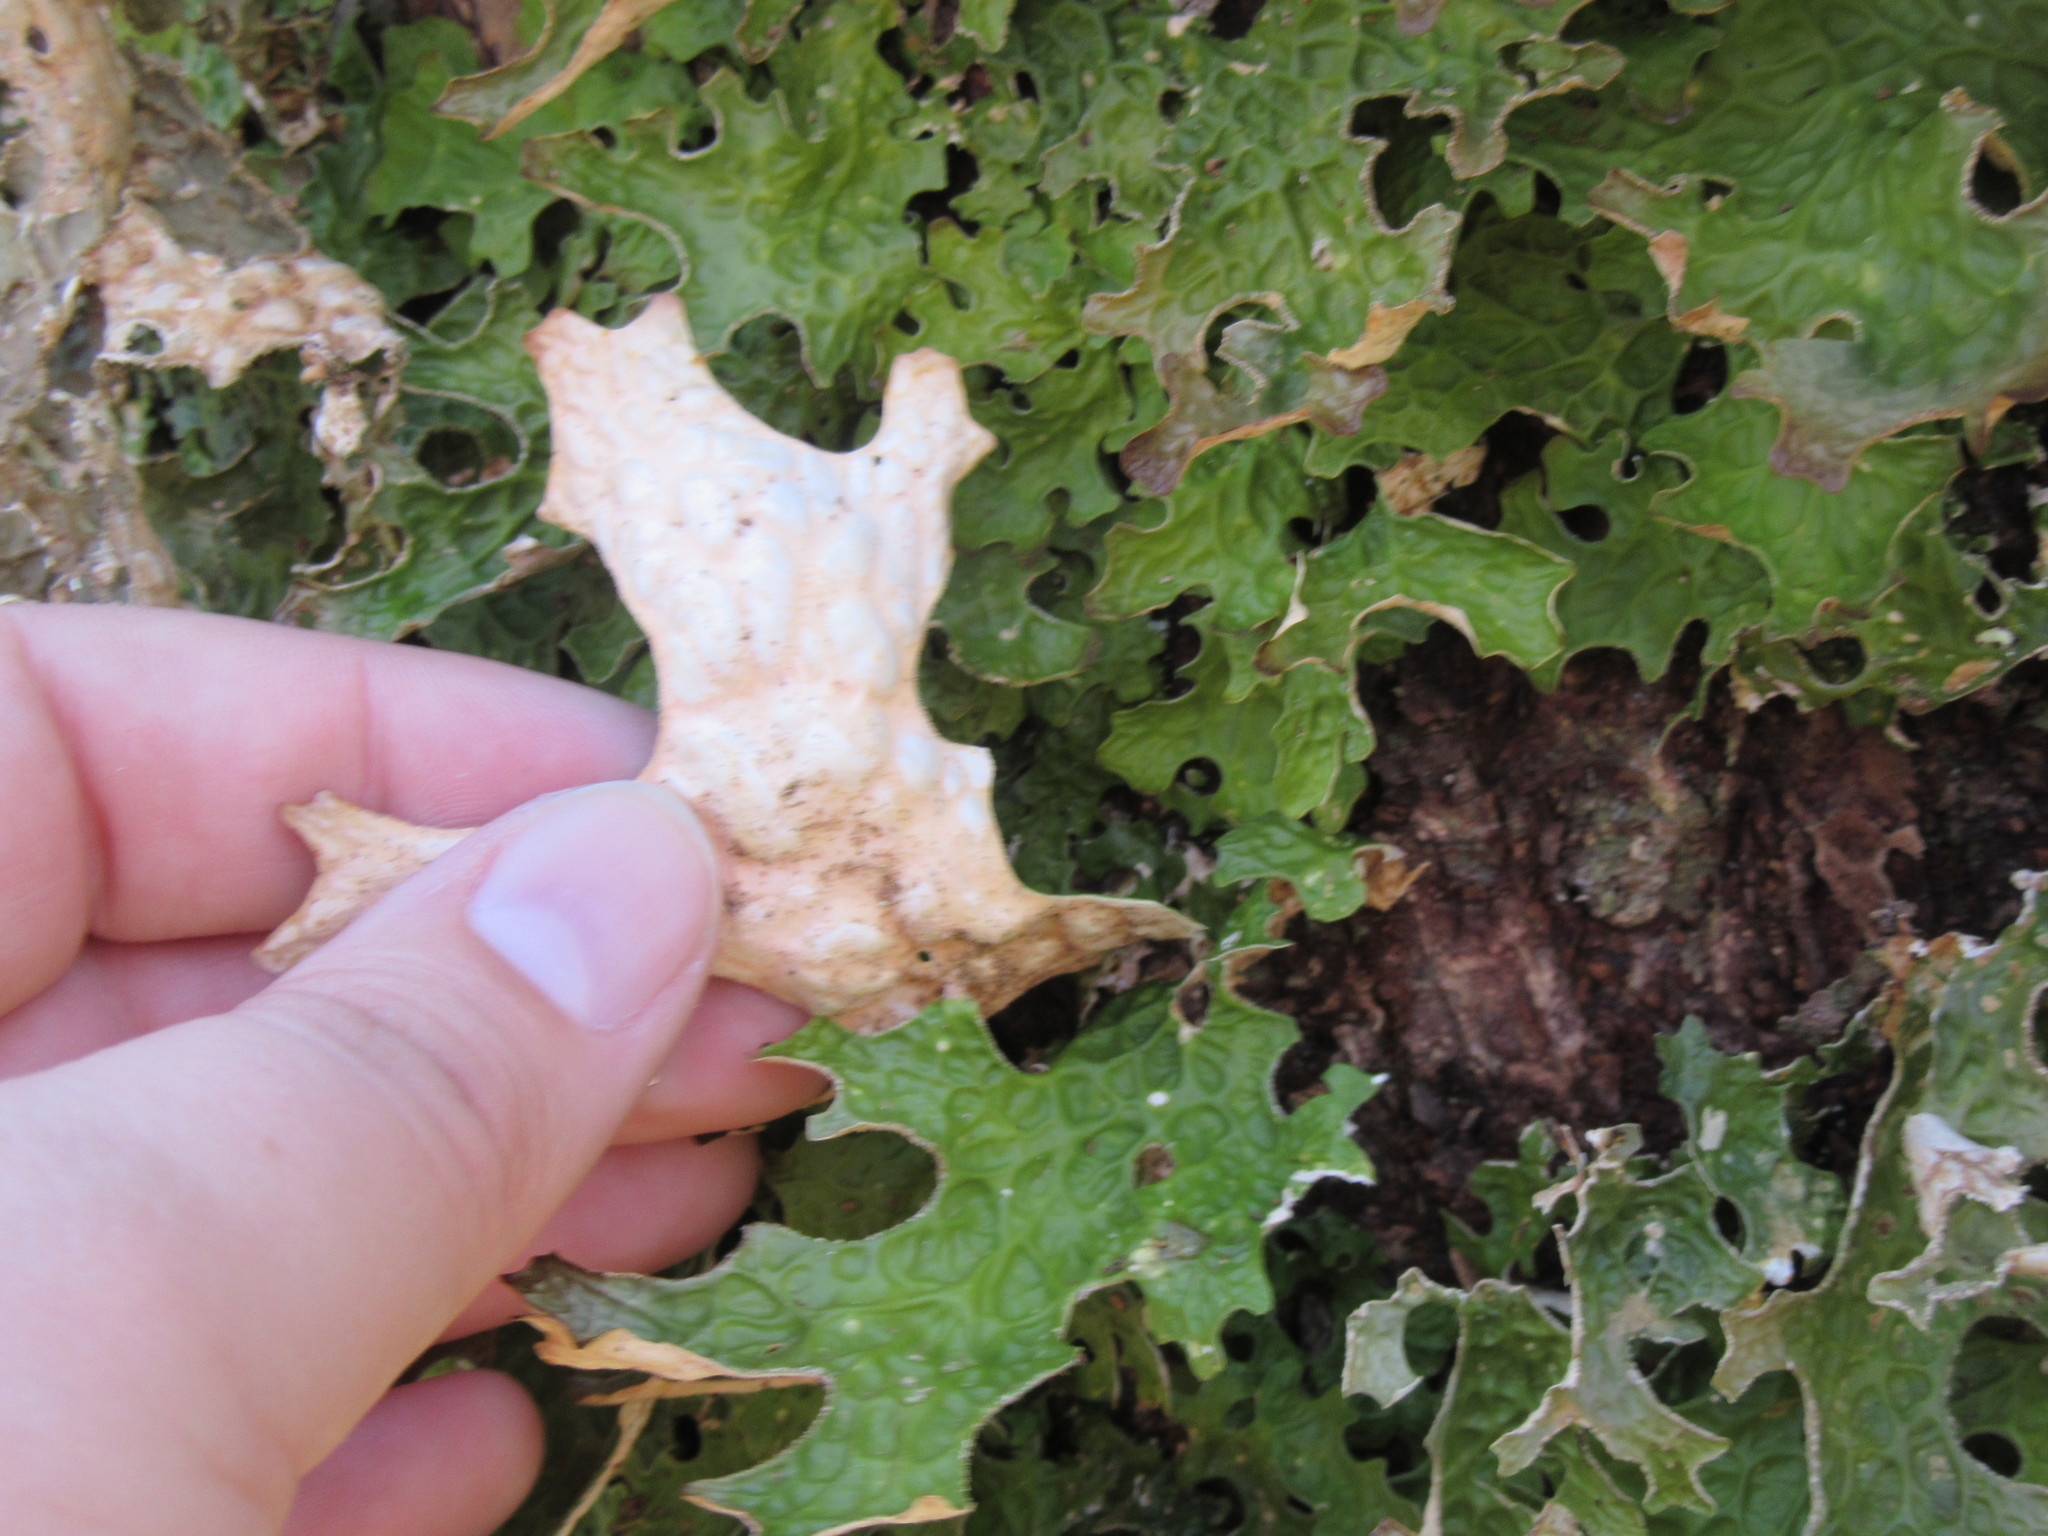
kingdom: Fungi
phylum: Ascomycota
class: Lecanoromycetes
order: Peltigerales
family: Lobariaceae
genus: Lobaria
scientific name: Lobaria pulmonaria
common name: Lungwort
